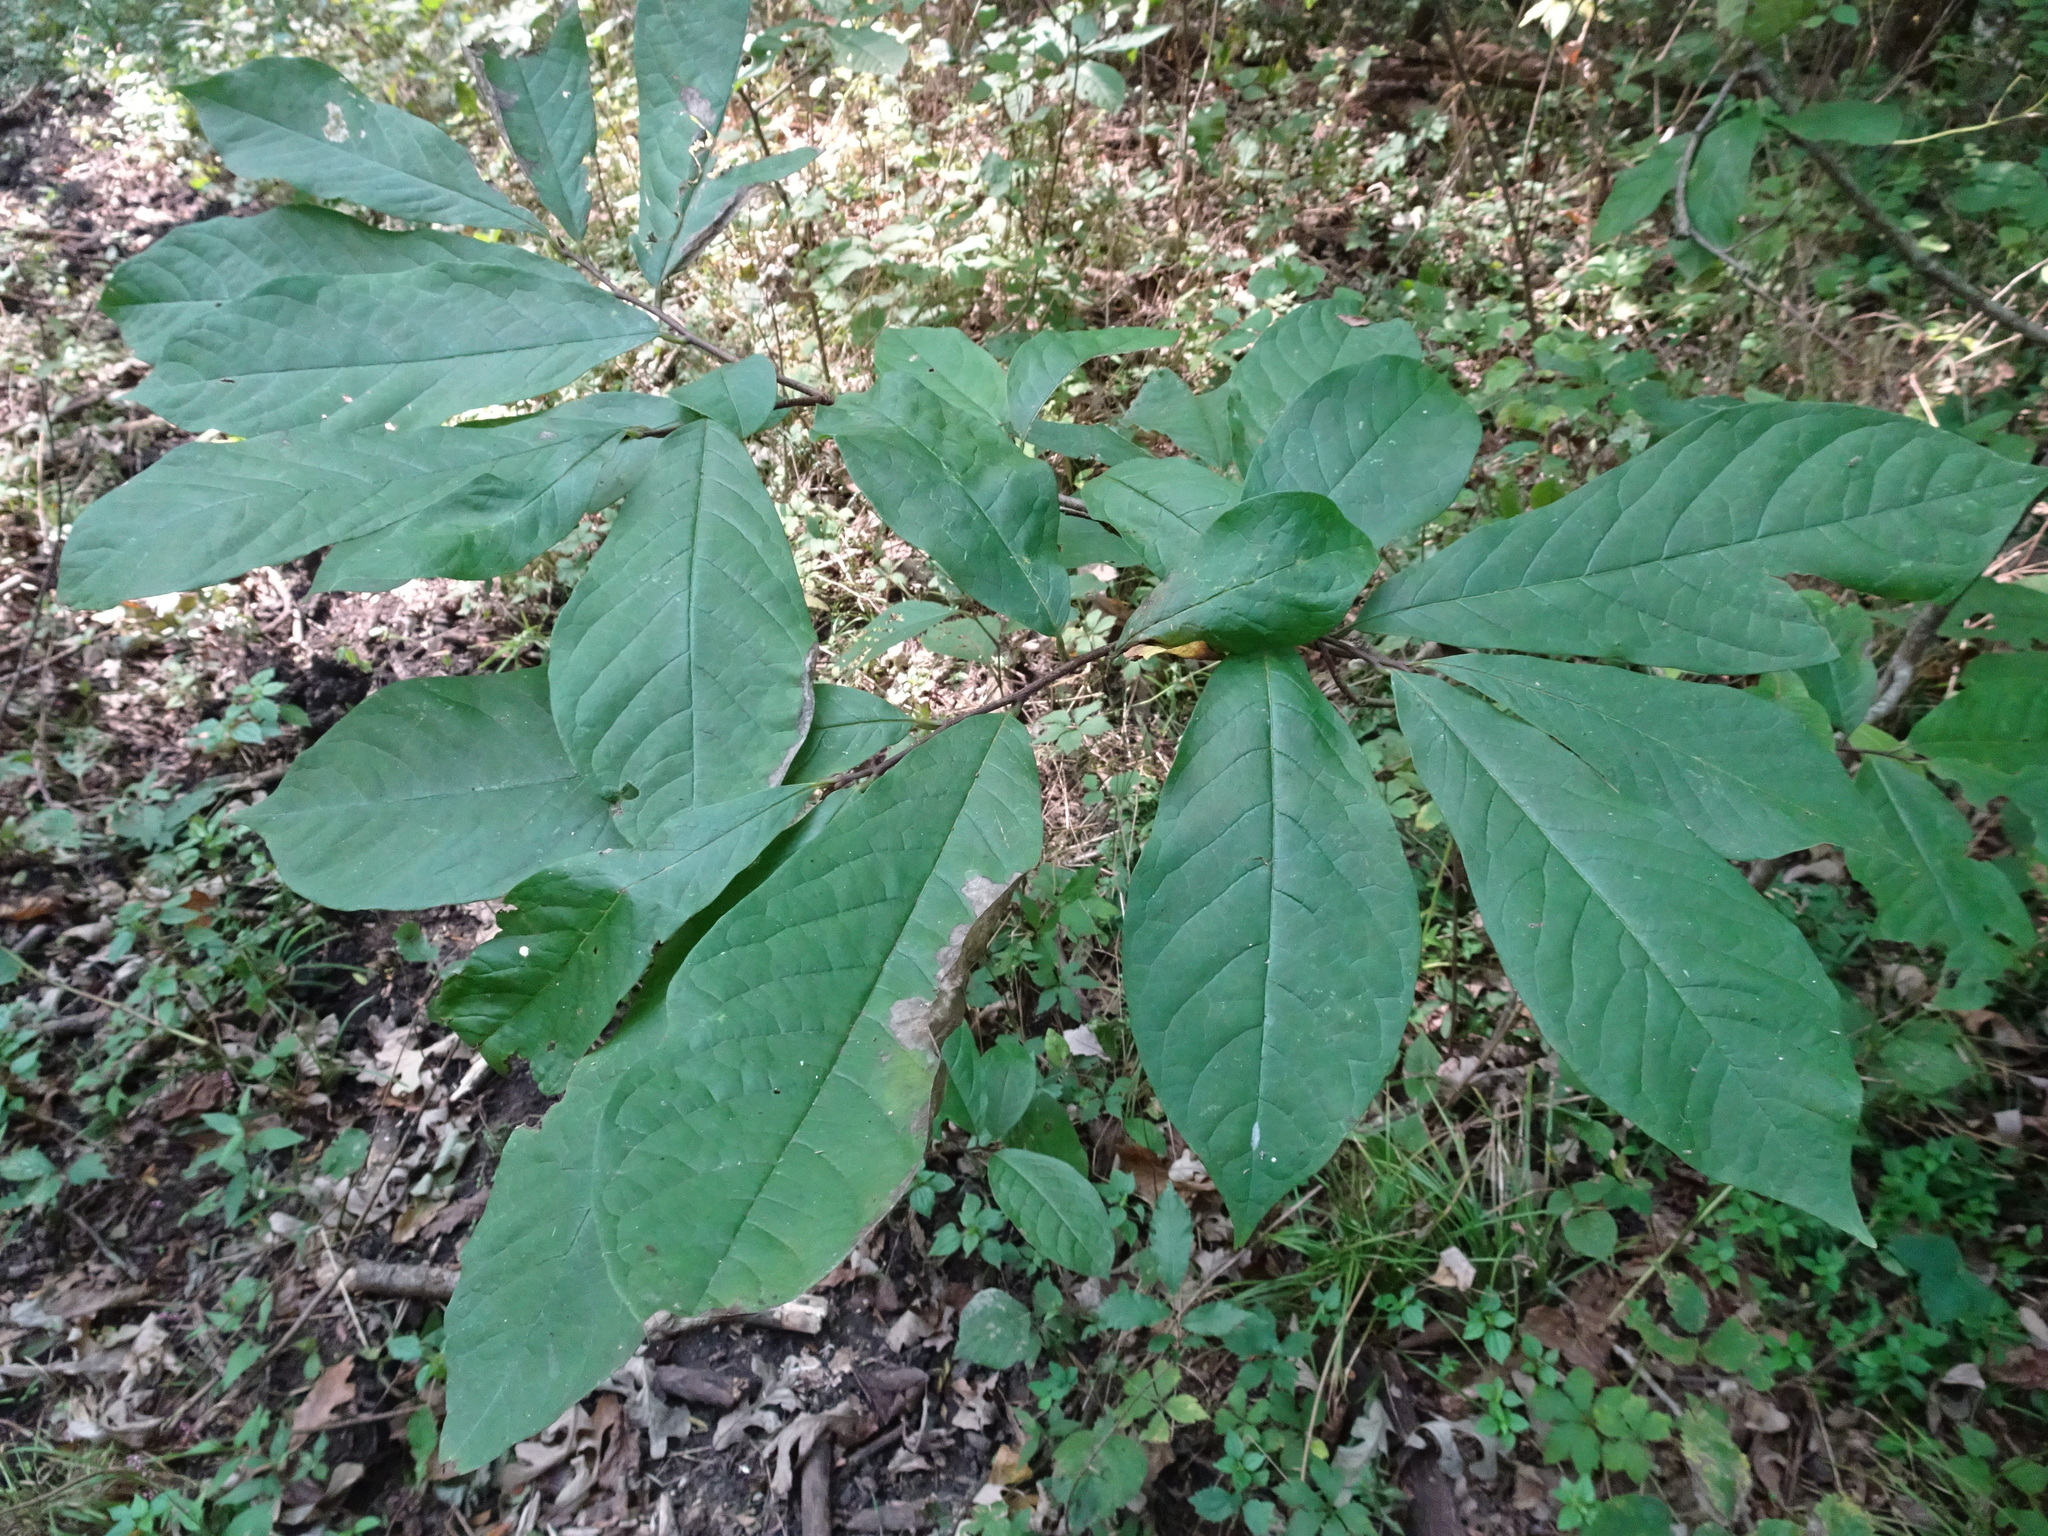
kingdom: Plantae
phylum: Tracheophyta
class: Magnoliopsida
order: Magnoliales
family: Annonaceae
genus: Asimina
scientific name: Asimina triloba
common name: Dog-banana
